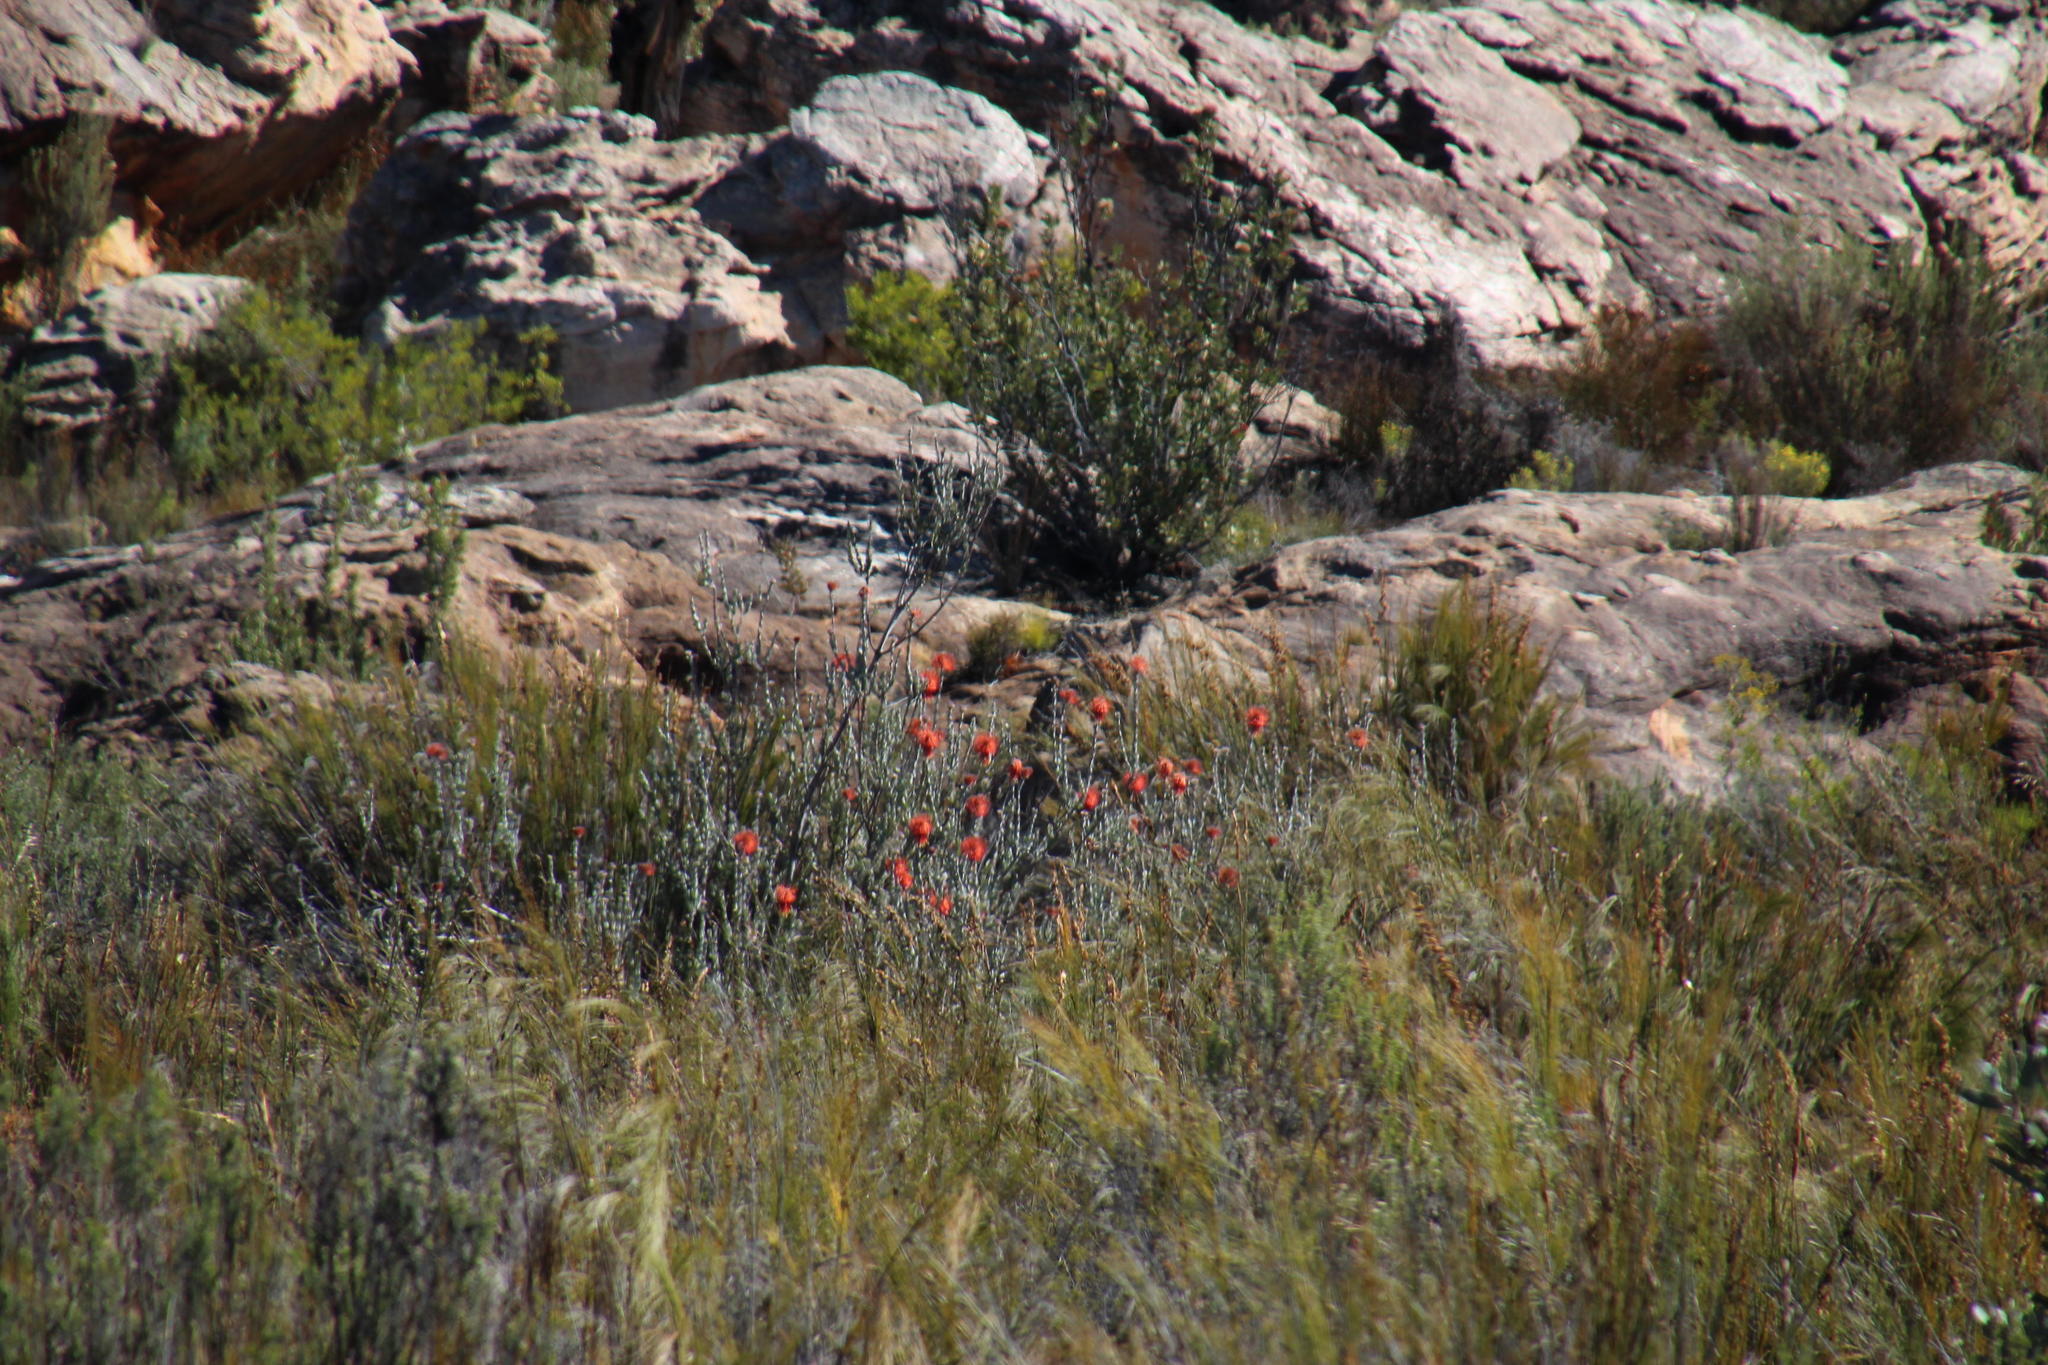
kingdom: Plantae
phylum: Tracheophyta
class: Magnoliopsida
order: Proteales
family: Proteaceae
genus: Leucospermum
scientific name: Leucospermum reflexum
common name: Rocket pincushion
